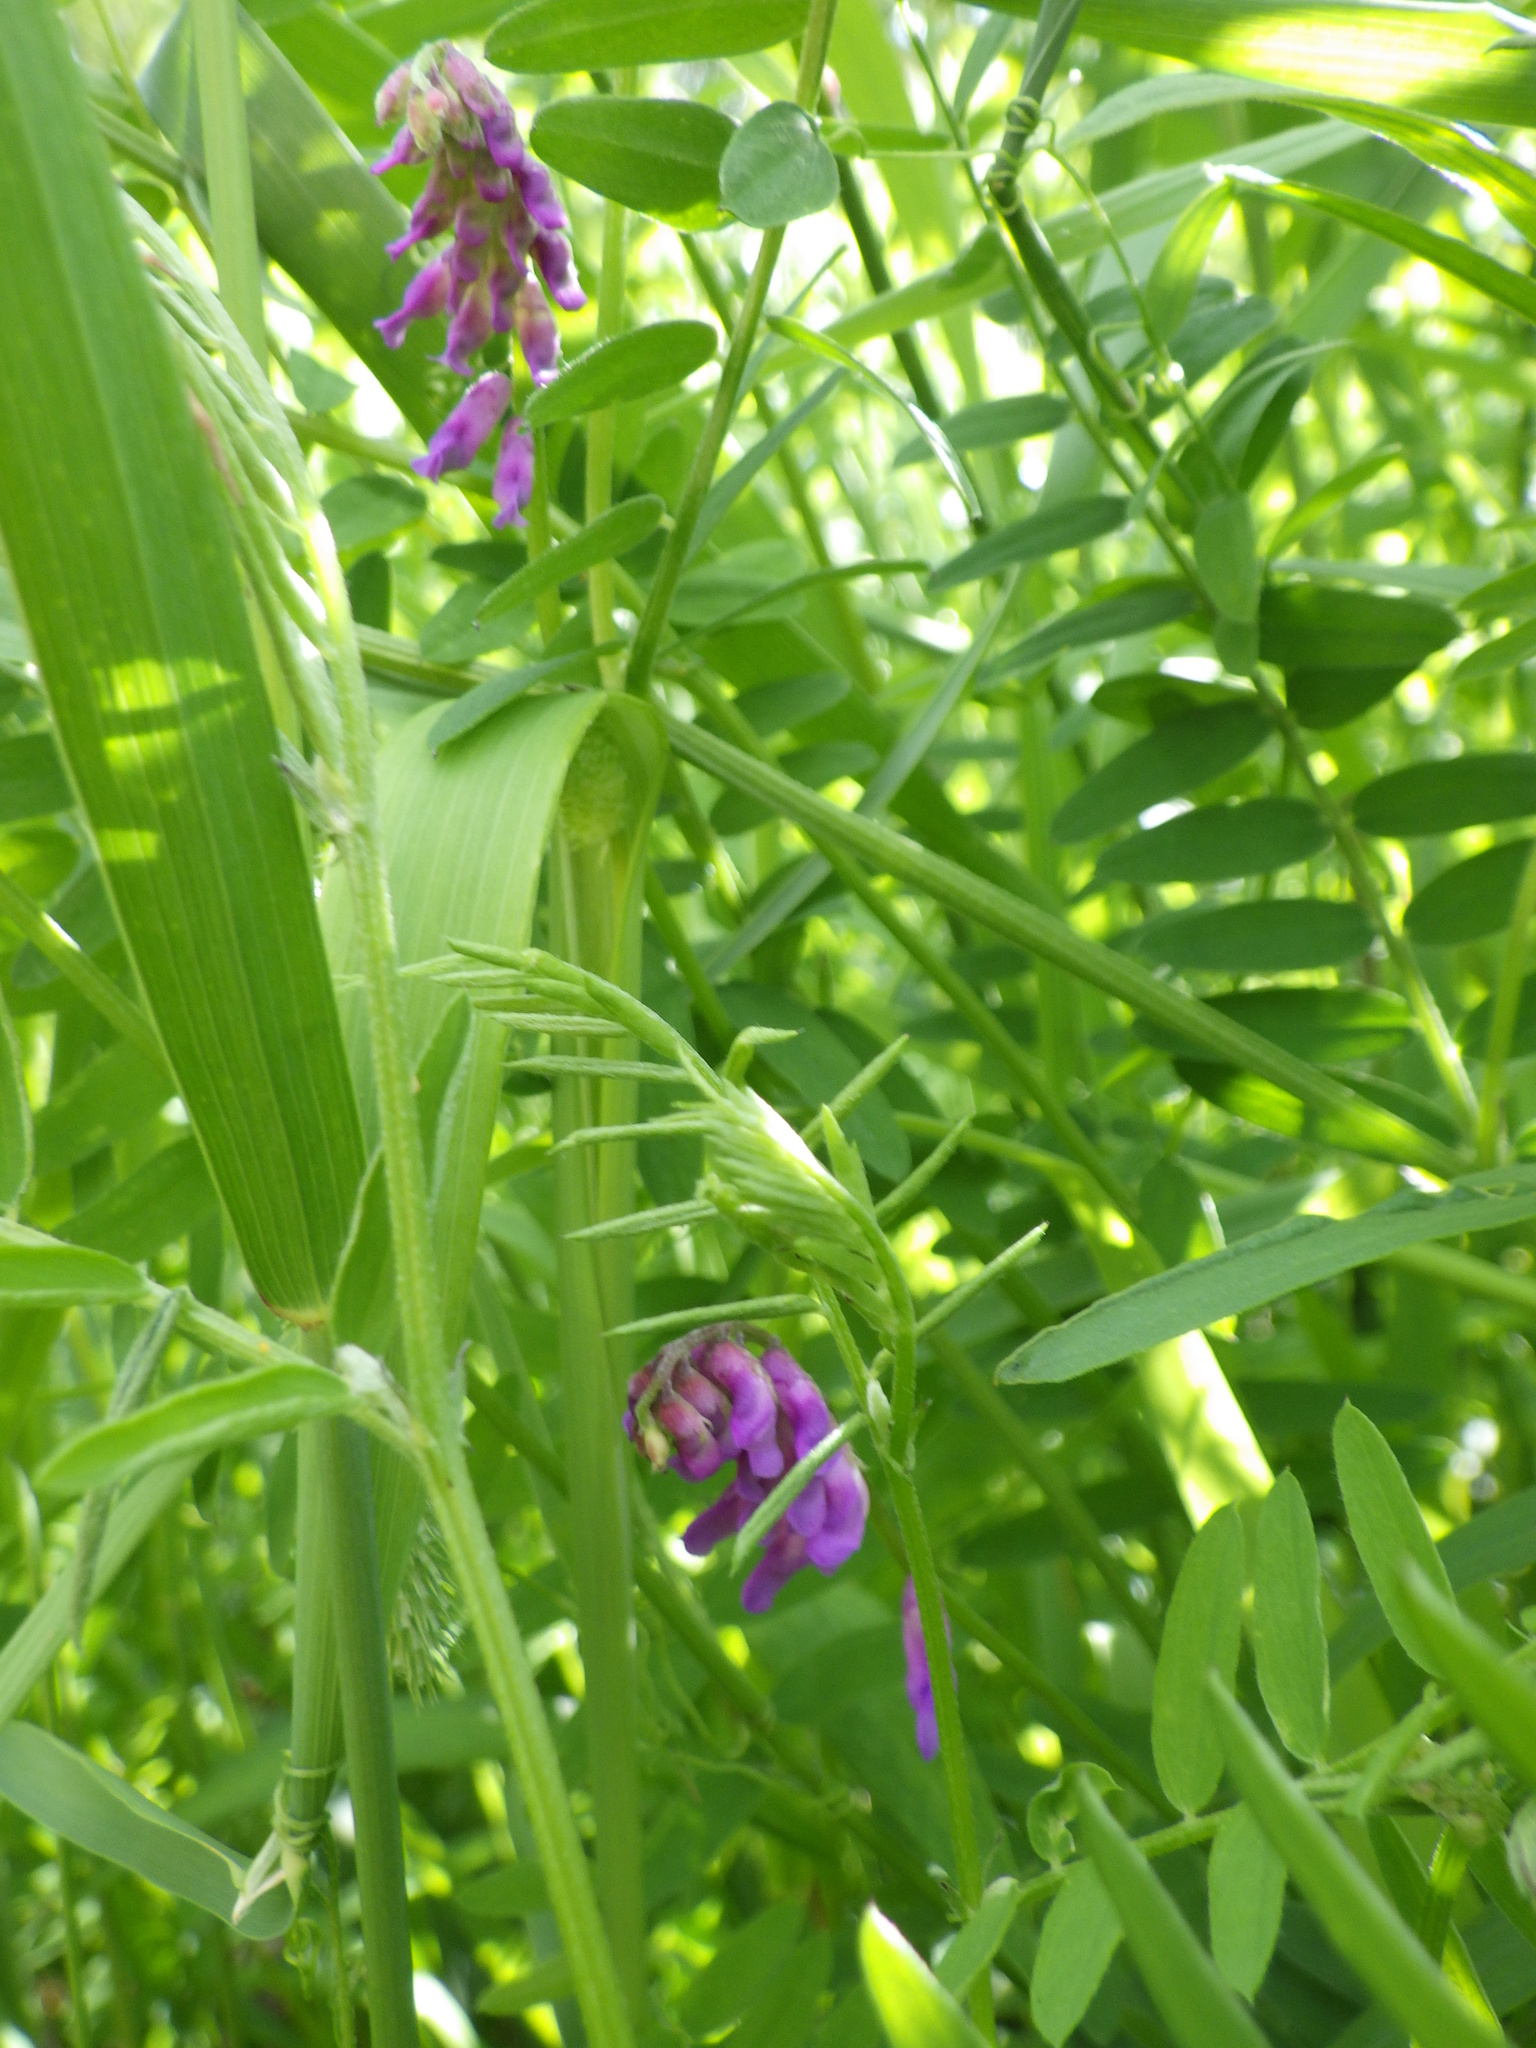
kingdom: Plantae
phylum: Tracheophyta
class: Magnoliopsida
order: Fabales
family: Fabaceae
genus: Vicia
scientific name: Vicia cracca
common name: Bird vetch
